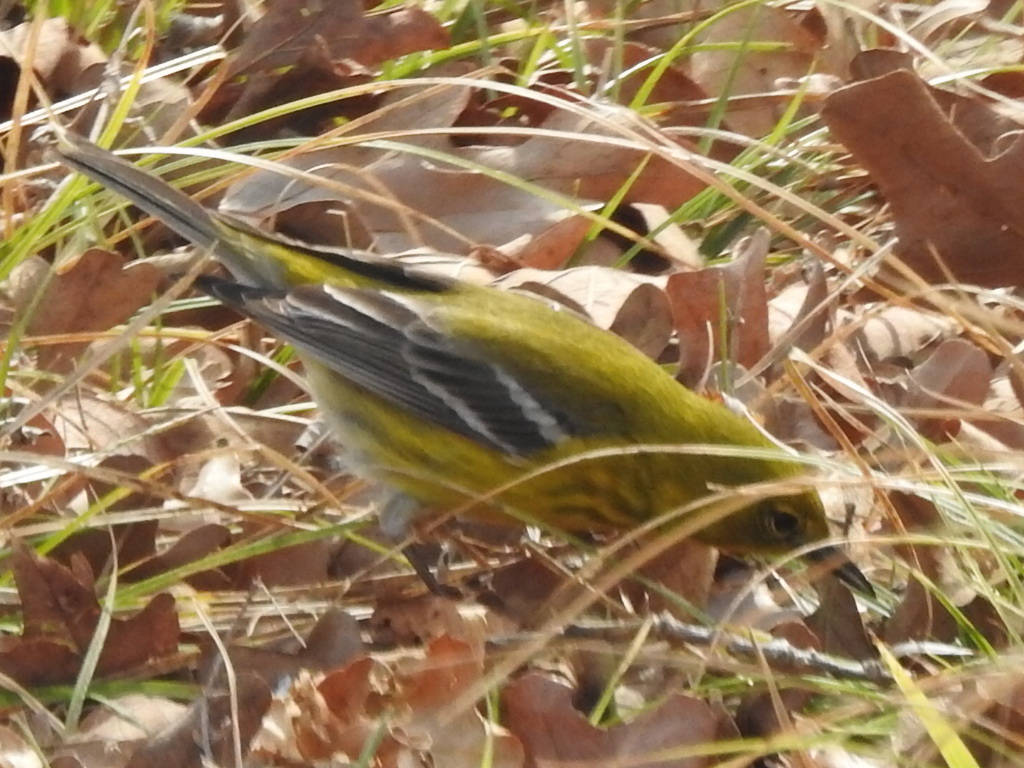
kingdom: Animalia
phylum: Chordata
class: Aves
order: Passeriformes
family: Parulidae
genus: Setophaga
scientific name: Setophaga pinus
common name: Pine warbler
